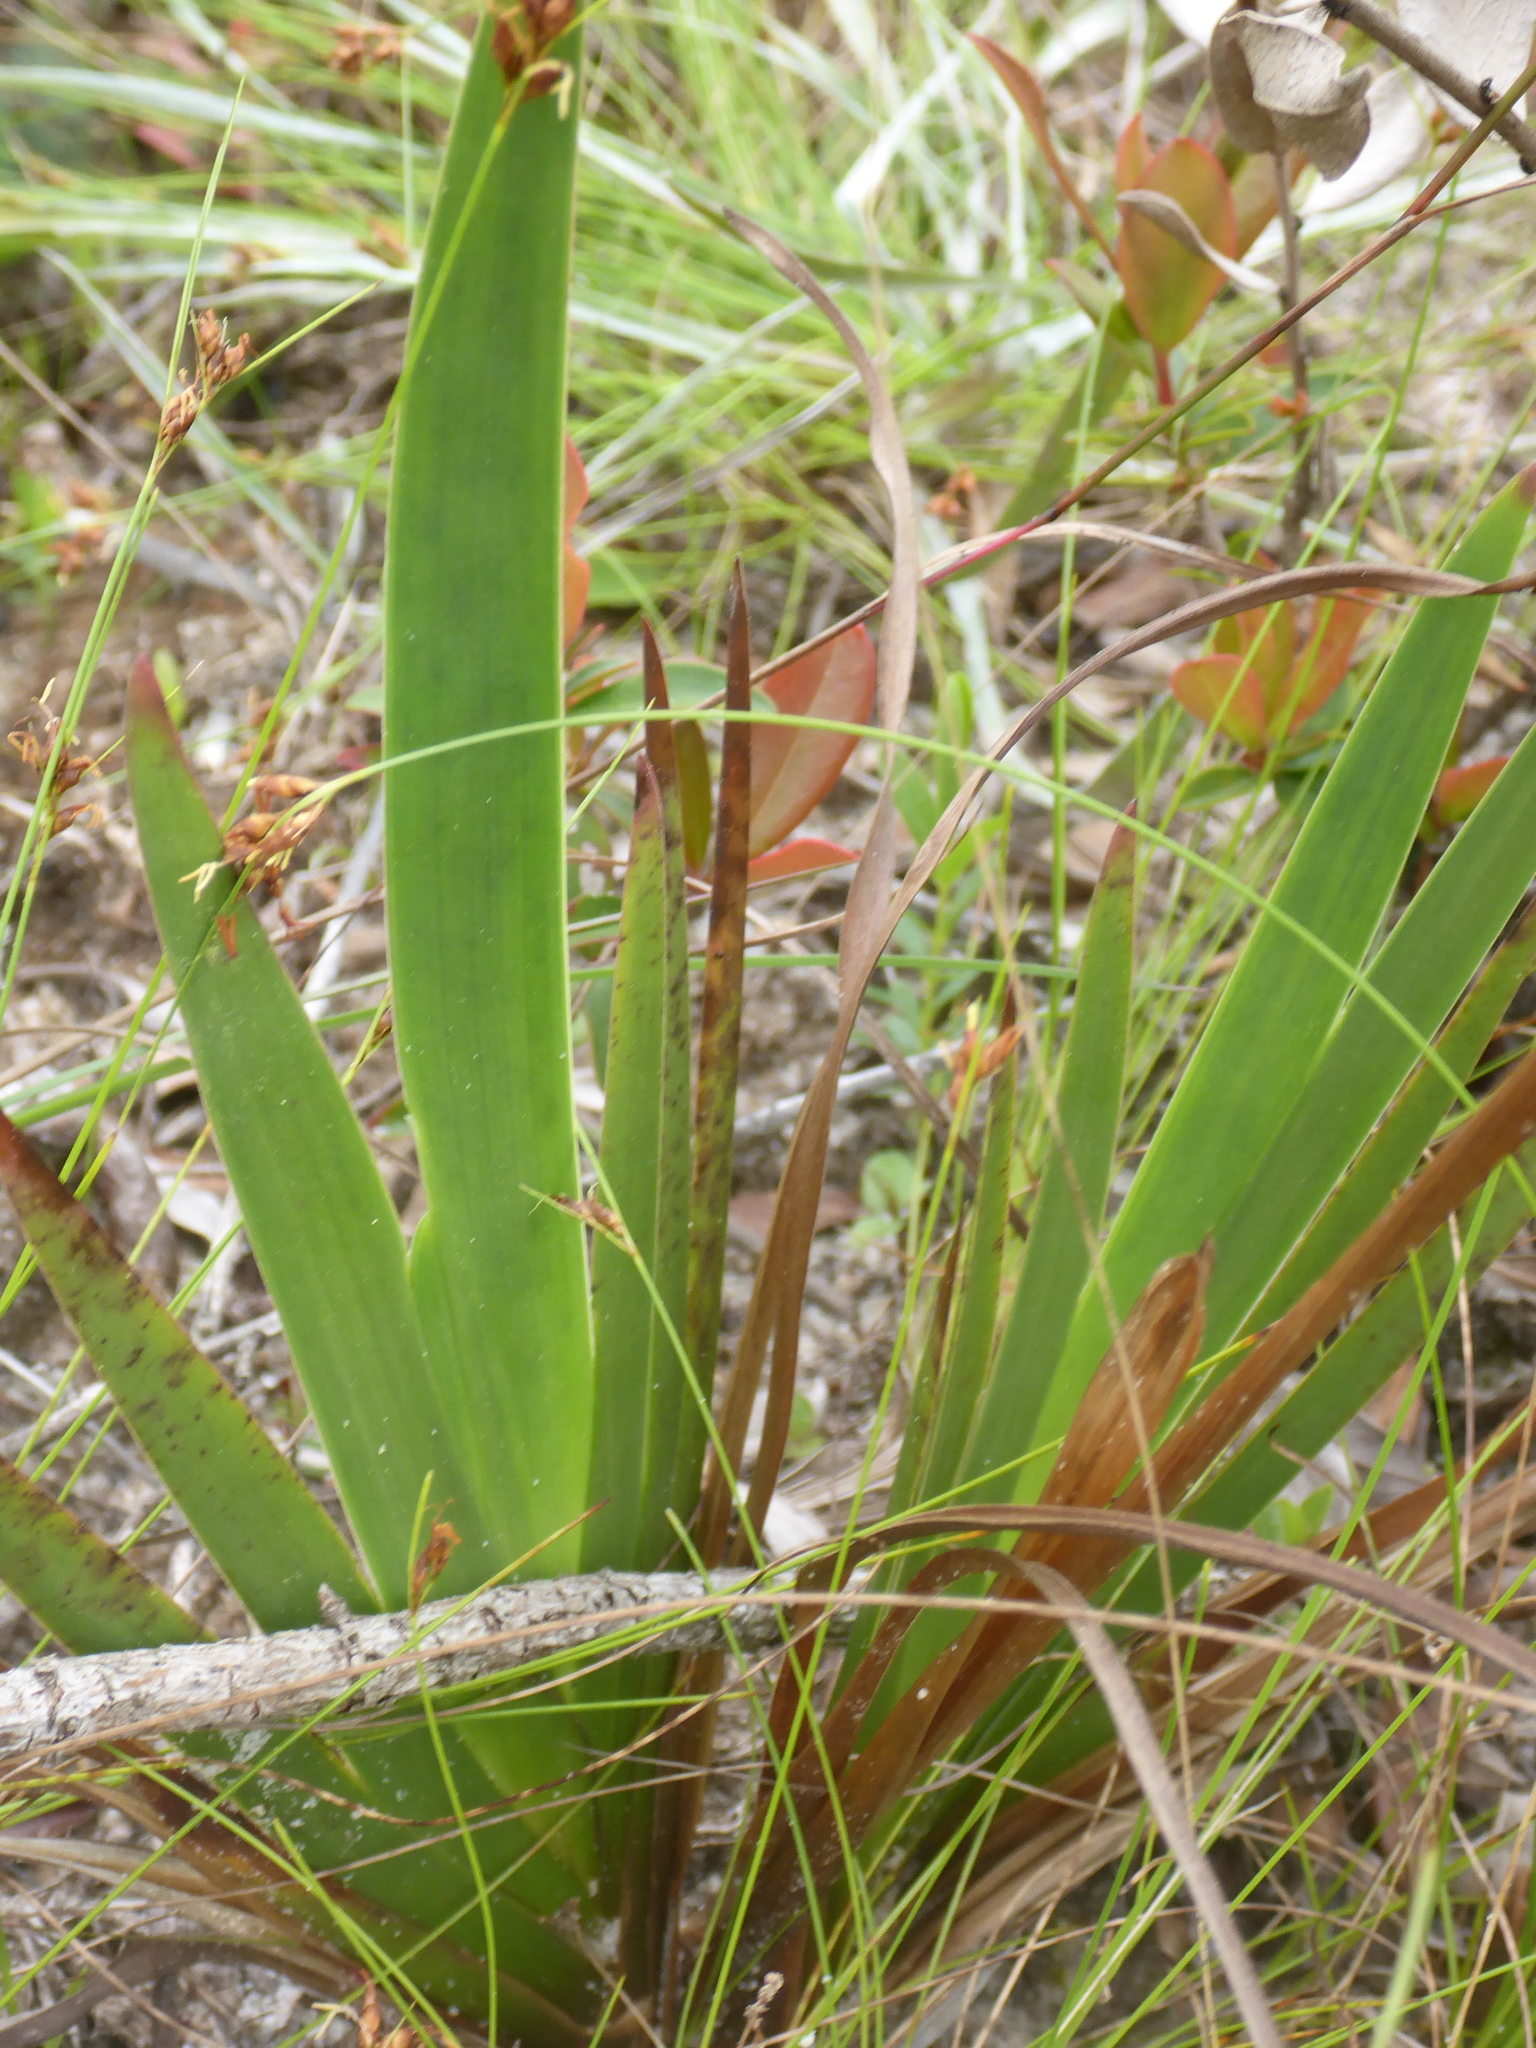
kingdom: Plantae
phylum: Tracheophyta
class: Liliopsida
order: Poales
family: Xyridaceae
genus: Xyris
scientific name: Xyris ambigua
